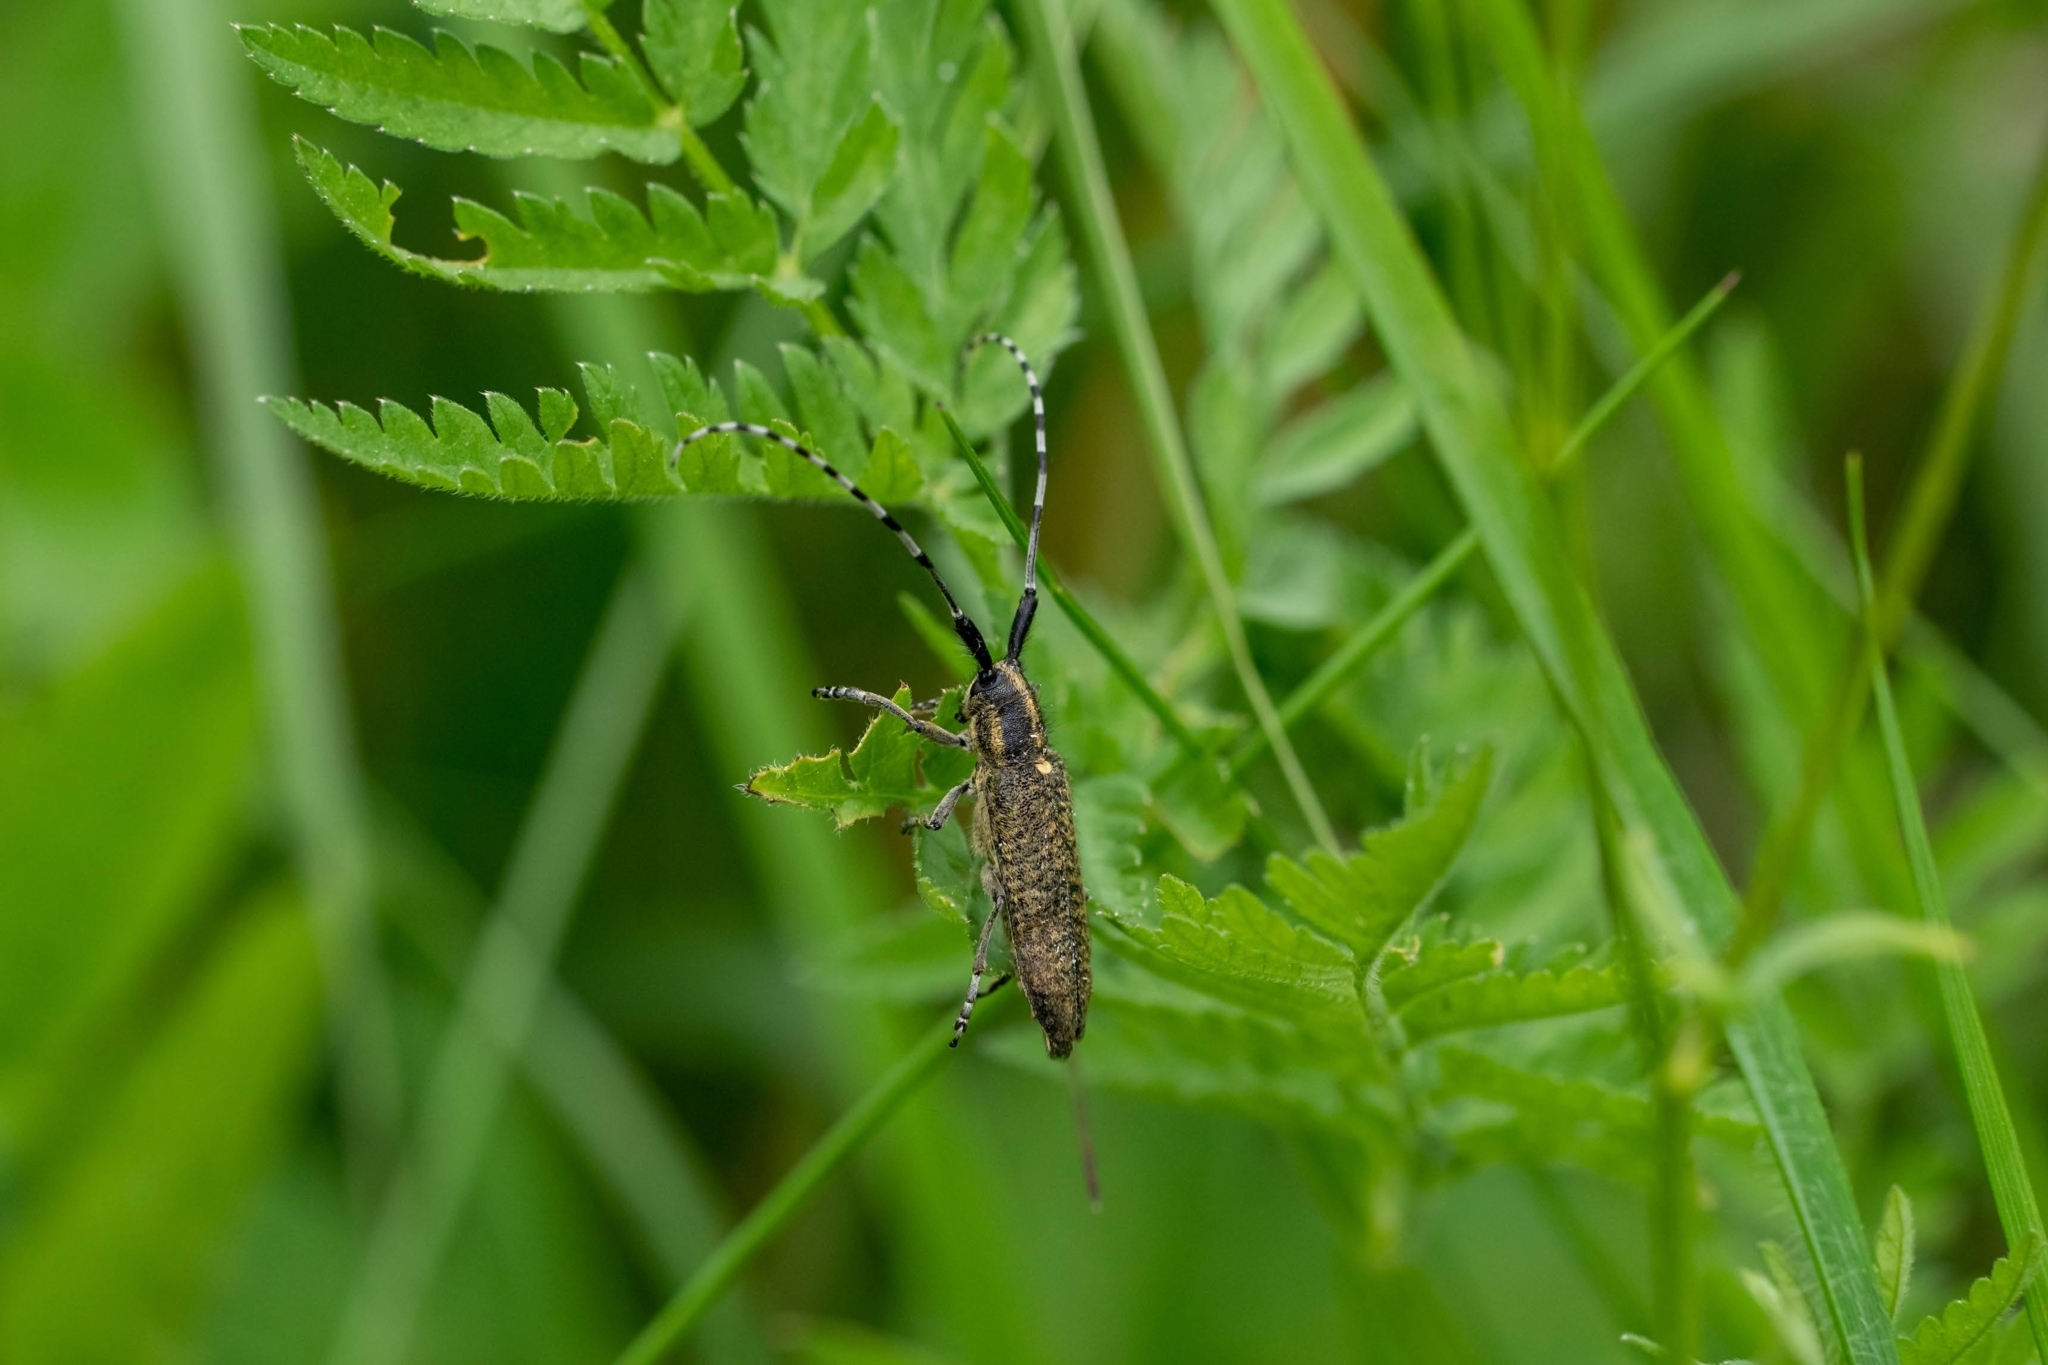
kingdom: Animalia
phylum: Arthropoda
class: Insecta
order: Coleoptera
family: Cerambycidae
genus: Agapanthia
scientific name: Agapanthia villosoviridescens
